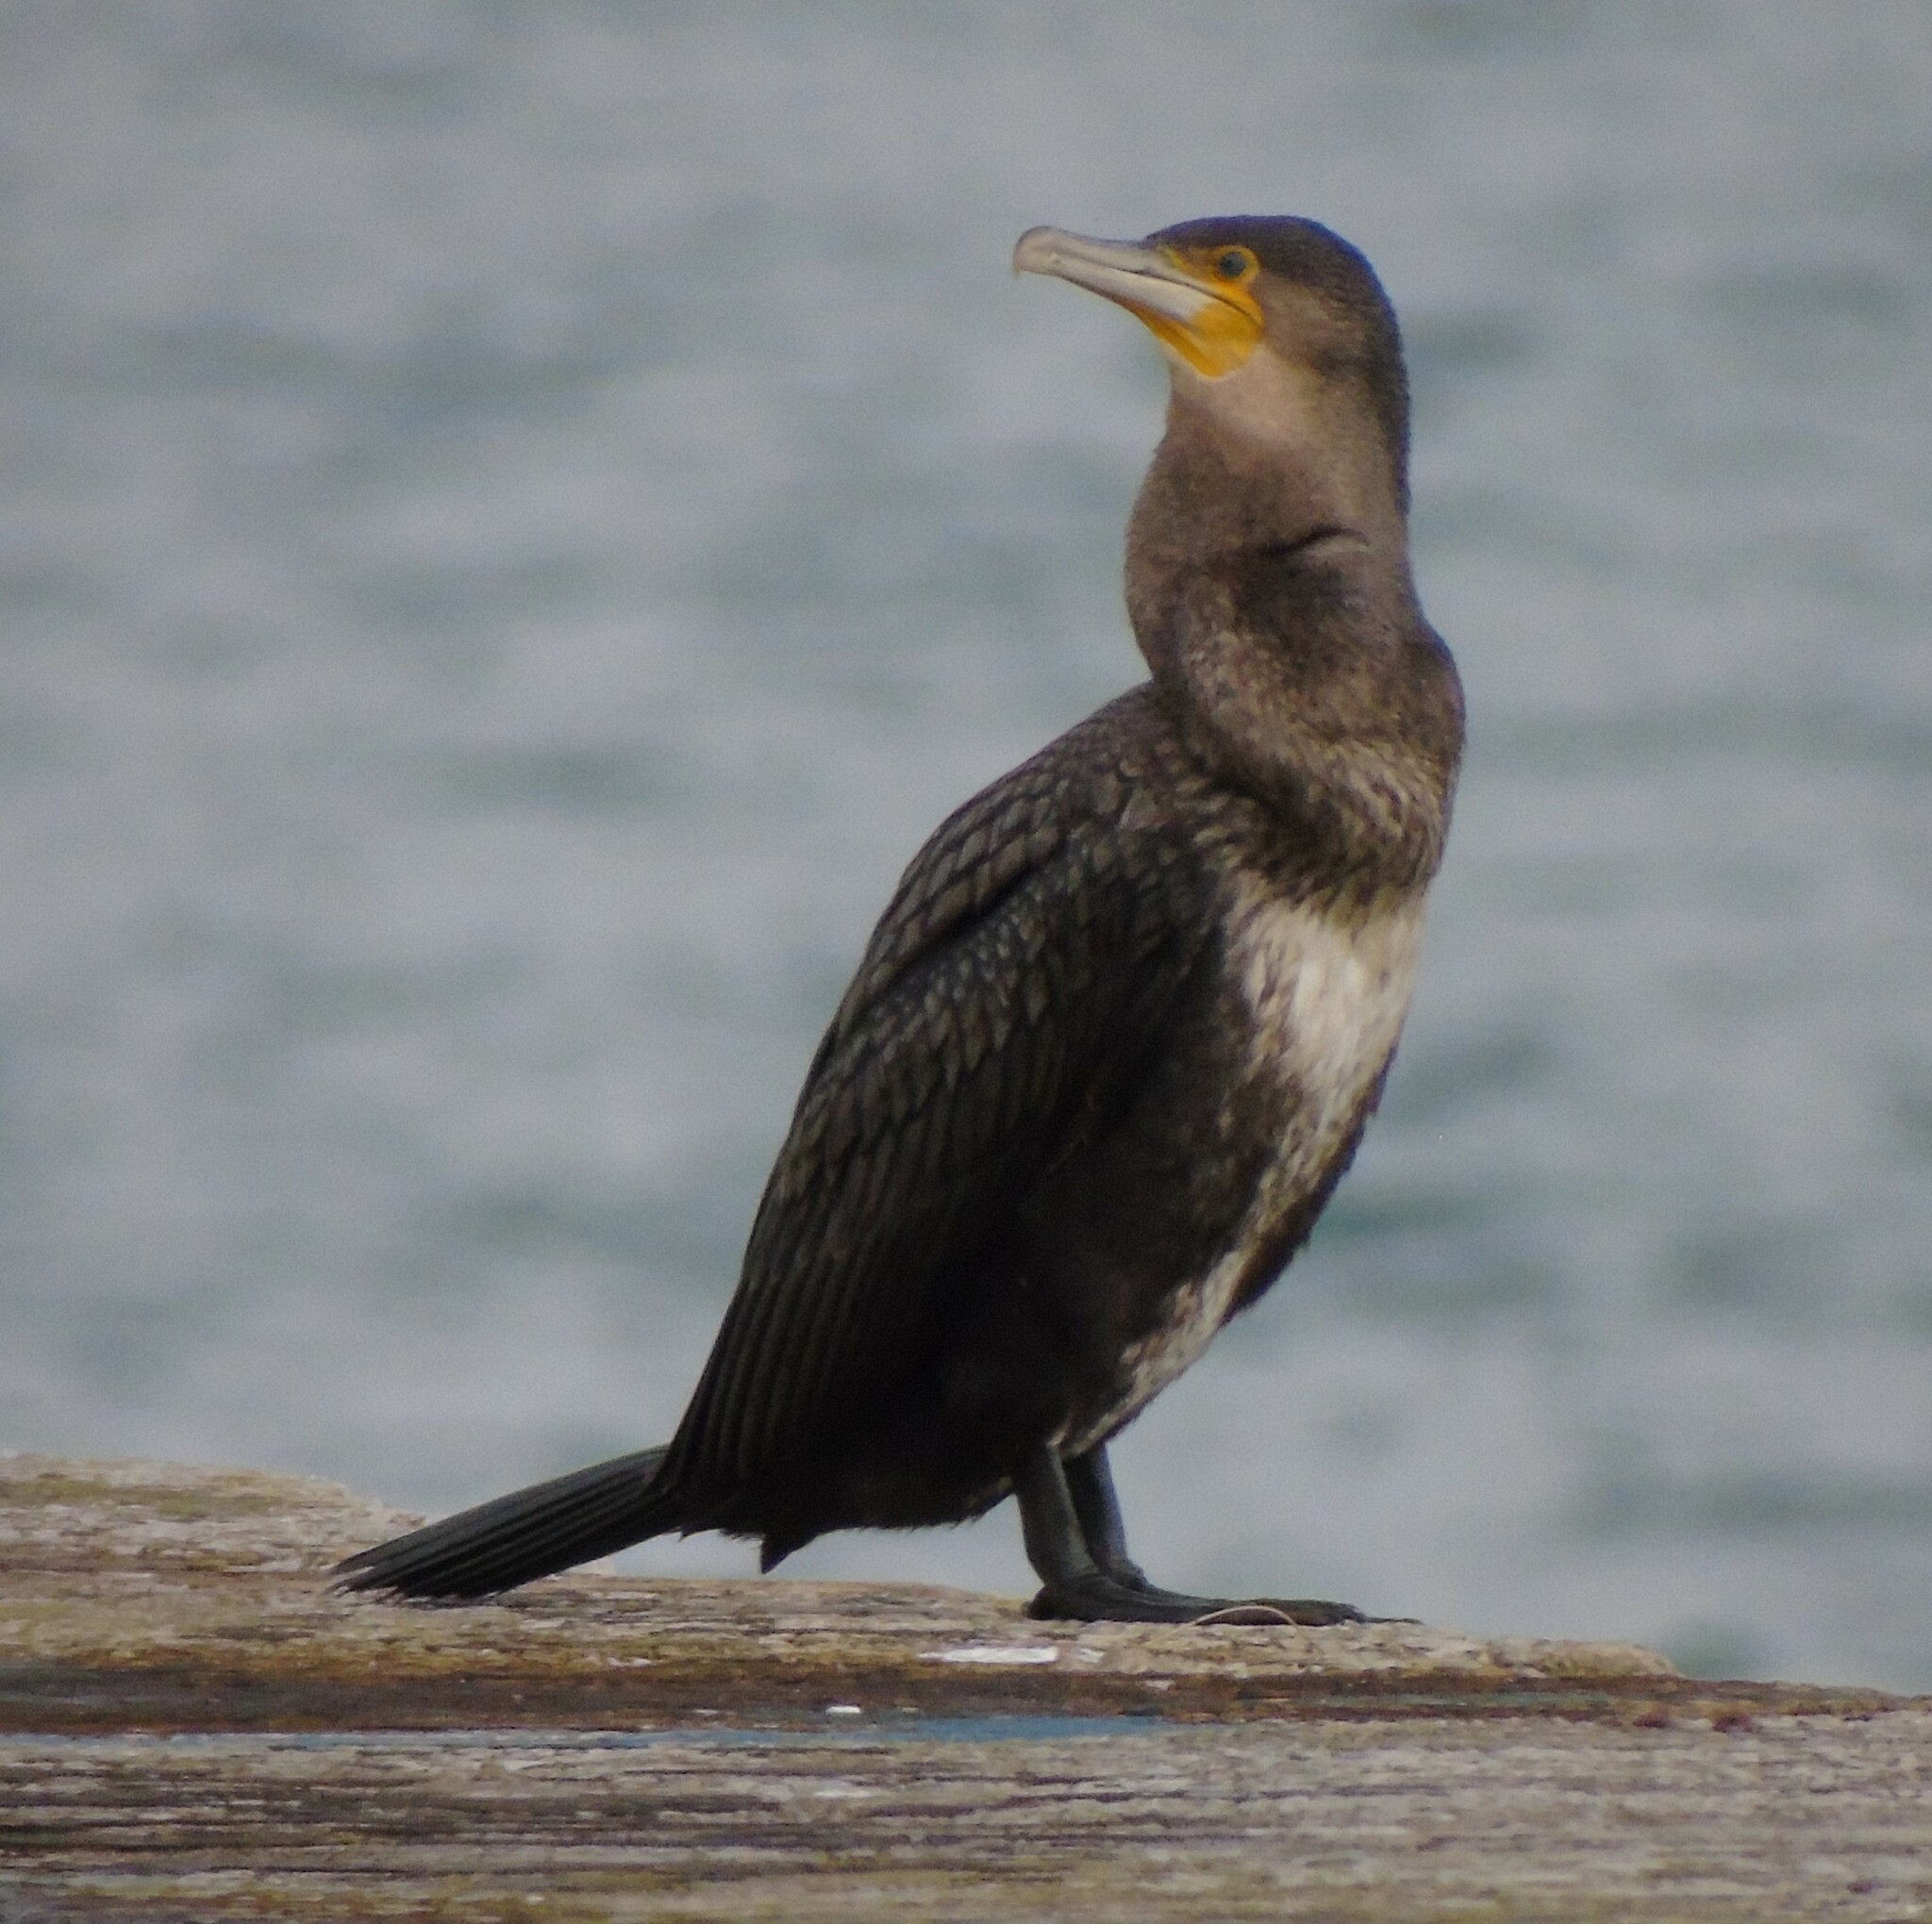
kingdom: Animalia
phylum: Chordata
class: Aves
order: Suliformes
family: Phalacrocoracidae
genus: Phalacrocorax
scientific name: Phalacrocorax carbo
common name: Great cormorant
